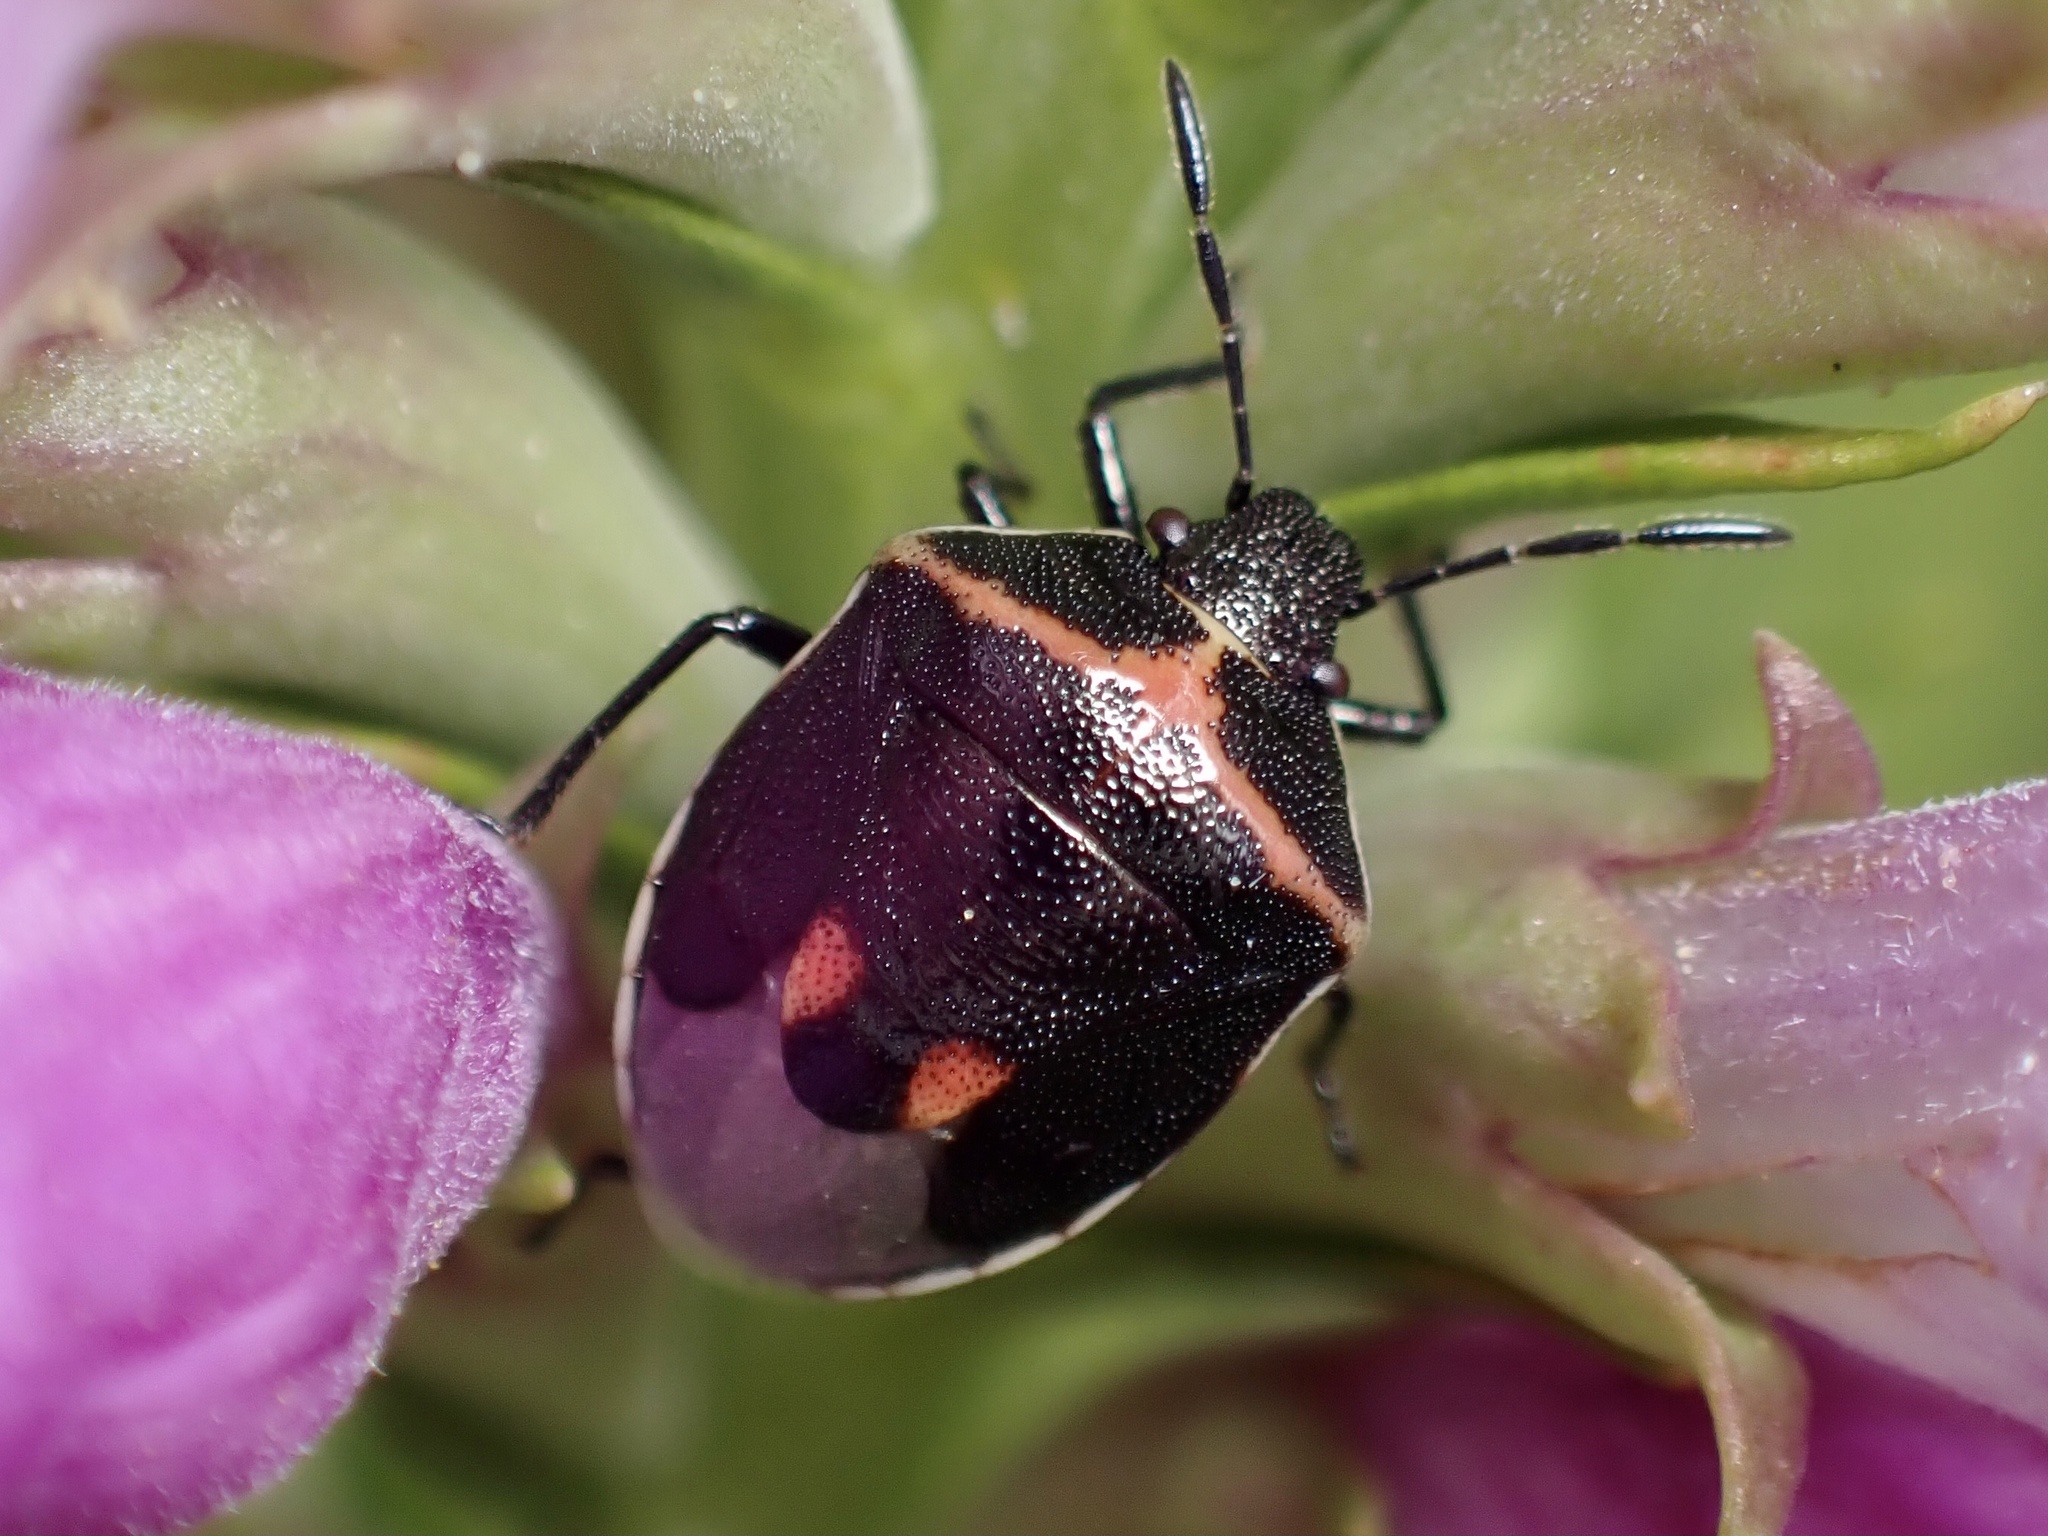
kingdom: Animalia
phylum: Arthropoda
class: Insecta
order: Hemiptera
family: Pentatomidae
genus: Cosmopepla
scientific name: Cosmopepla lintneriana
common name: Twice-stabbed stink bug
